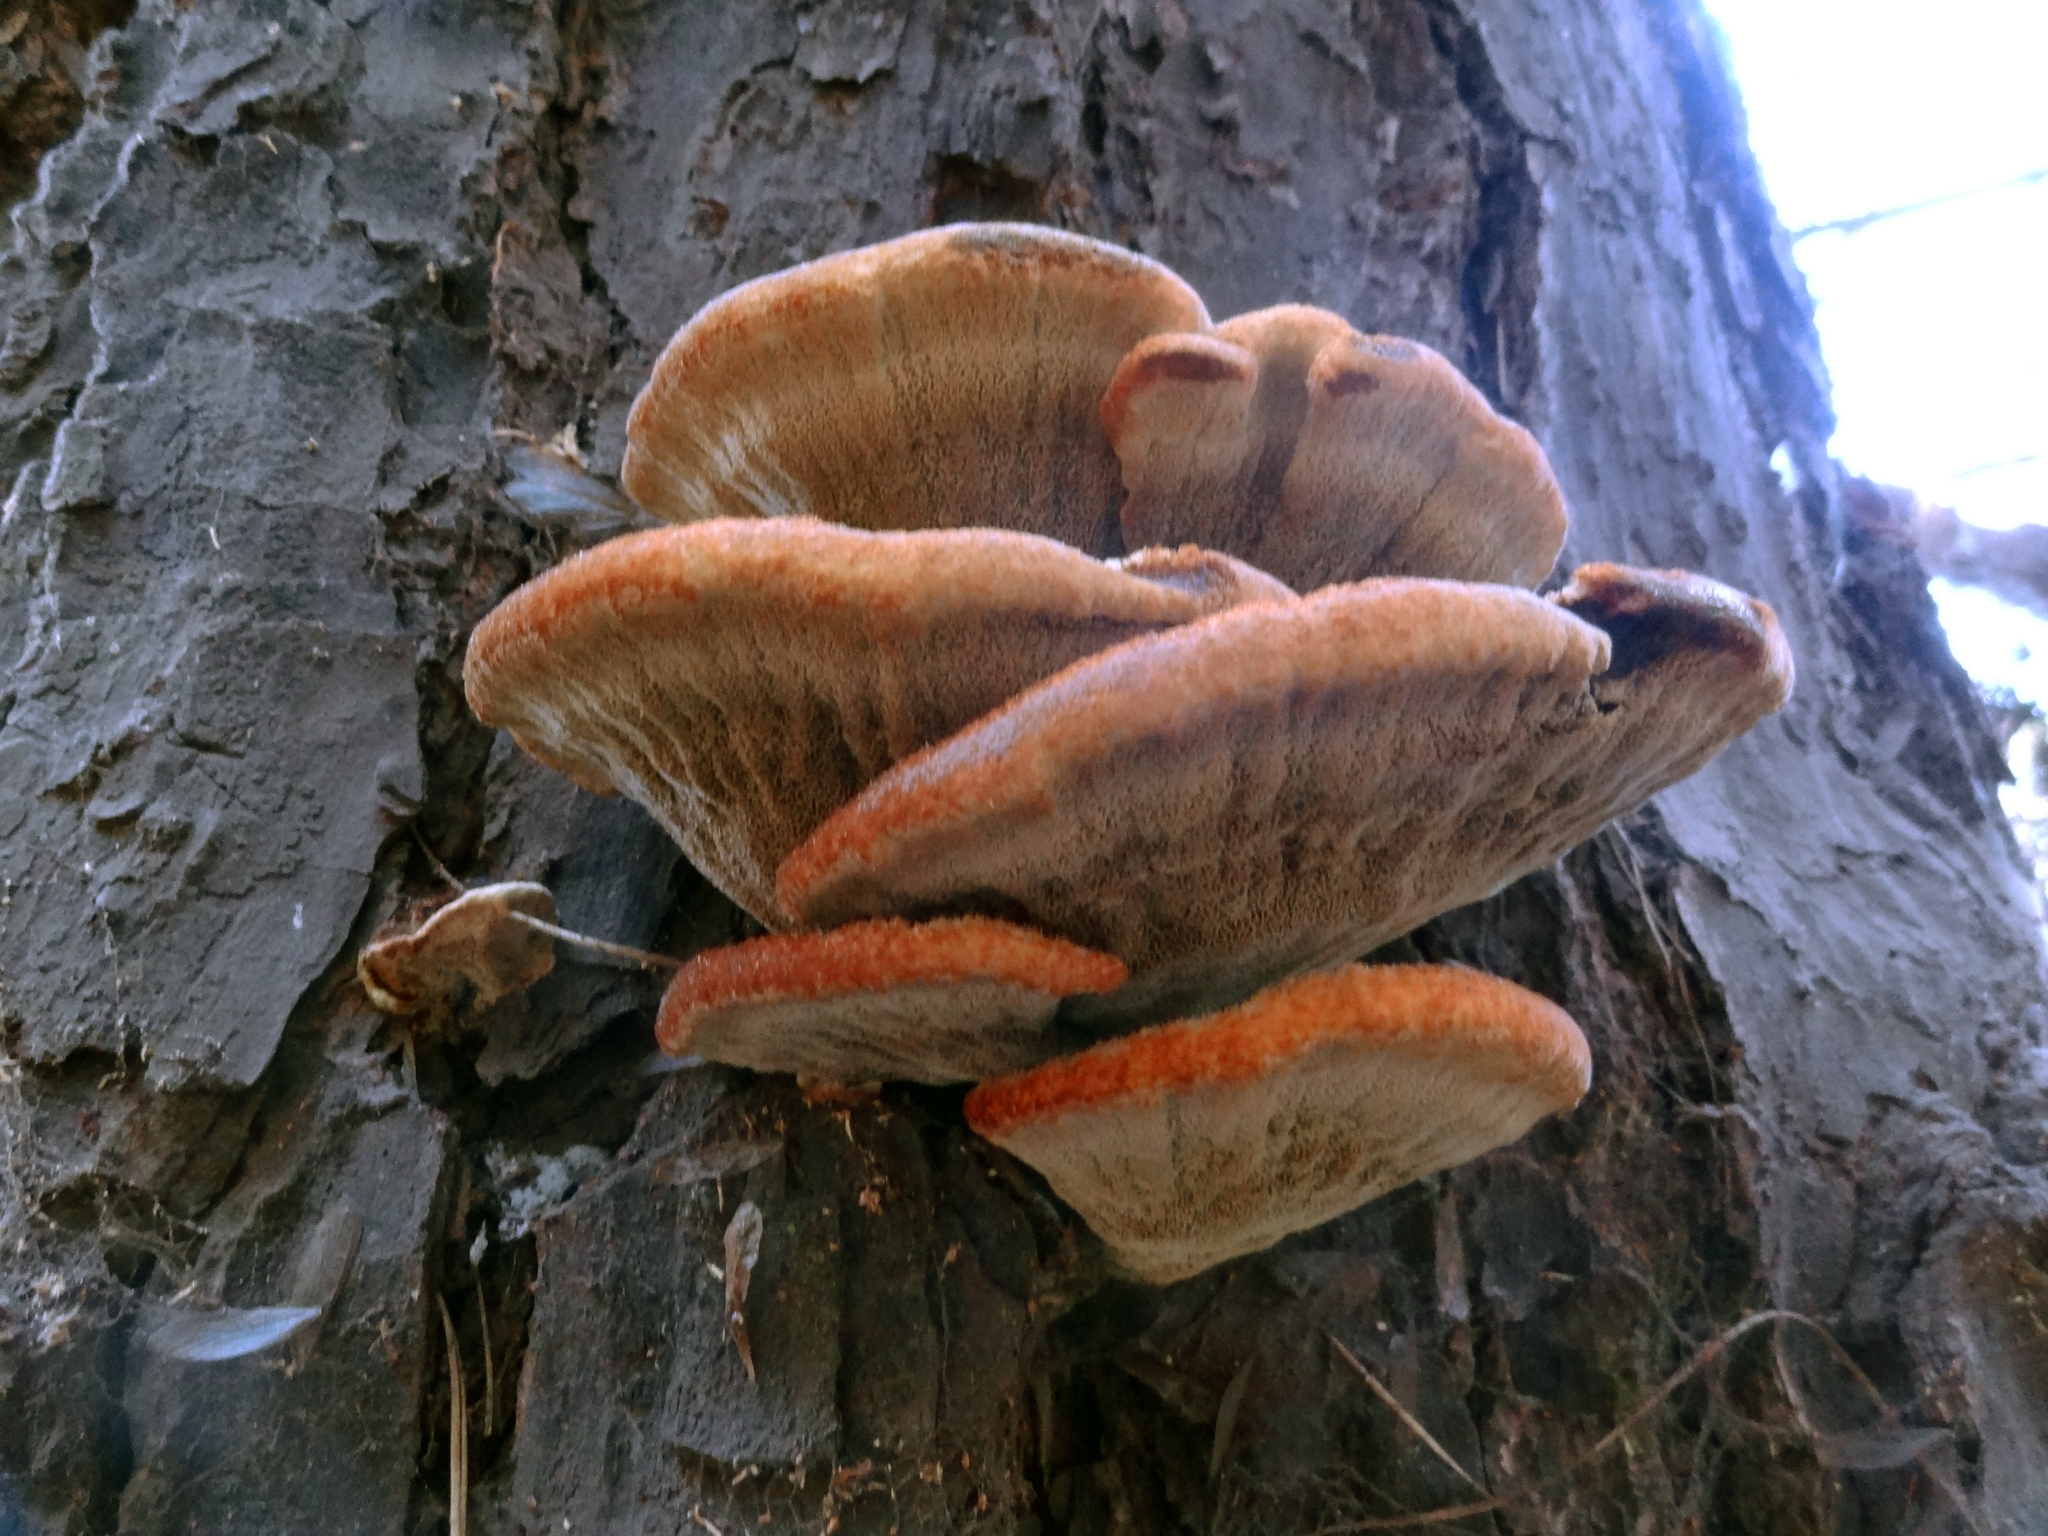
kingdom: Fungi
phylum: Basidiomycota
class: Agaricomycetes
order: Polyporales
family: Laetiporaceae
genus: Phaeolus
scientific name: Phaeolus schweinitzii
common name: Dyer's mazegill
